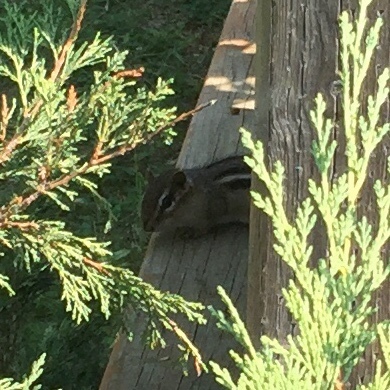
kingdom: Animalia
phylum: Chordata
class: Mammalia
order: Rodentia
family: Sciuridae
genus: Tamias
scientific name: Tamias striatus
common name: Eastern chipmunk
